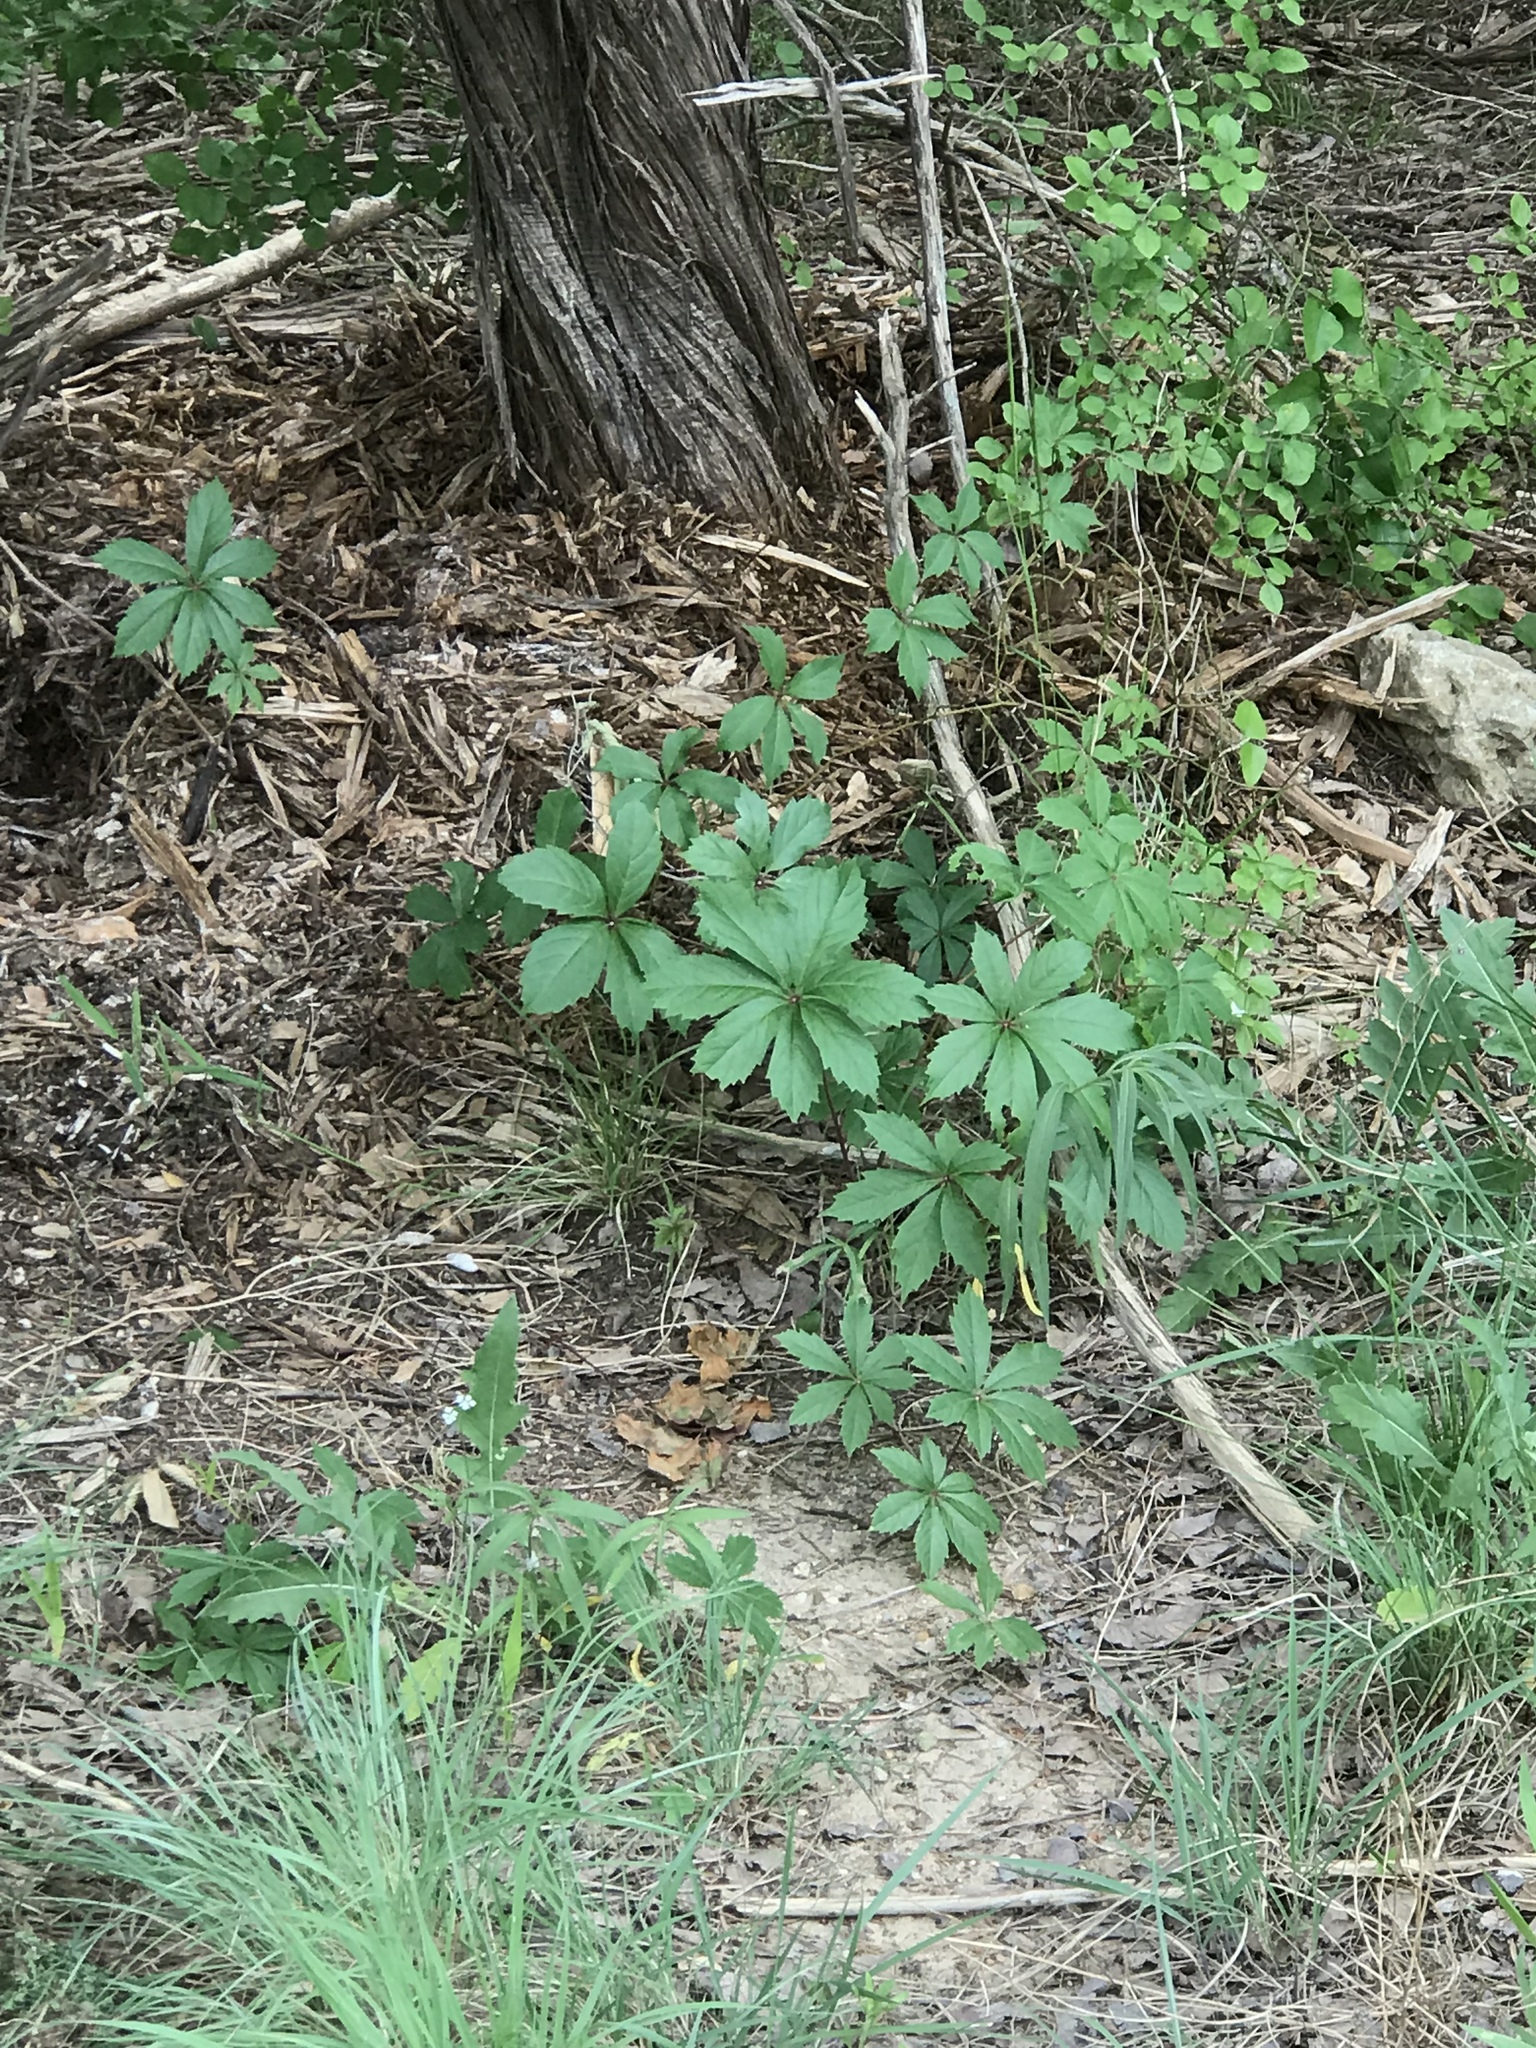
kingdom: Plantae
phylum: Tracheophyta
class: Magnoliopsida
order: Vitales
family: Vitaceae
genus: Parthenocissus
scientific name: Parthenocissus heptaphylla
